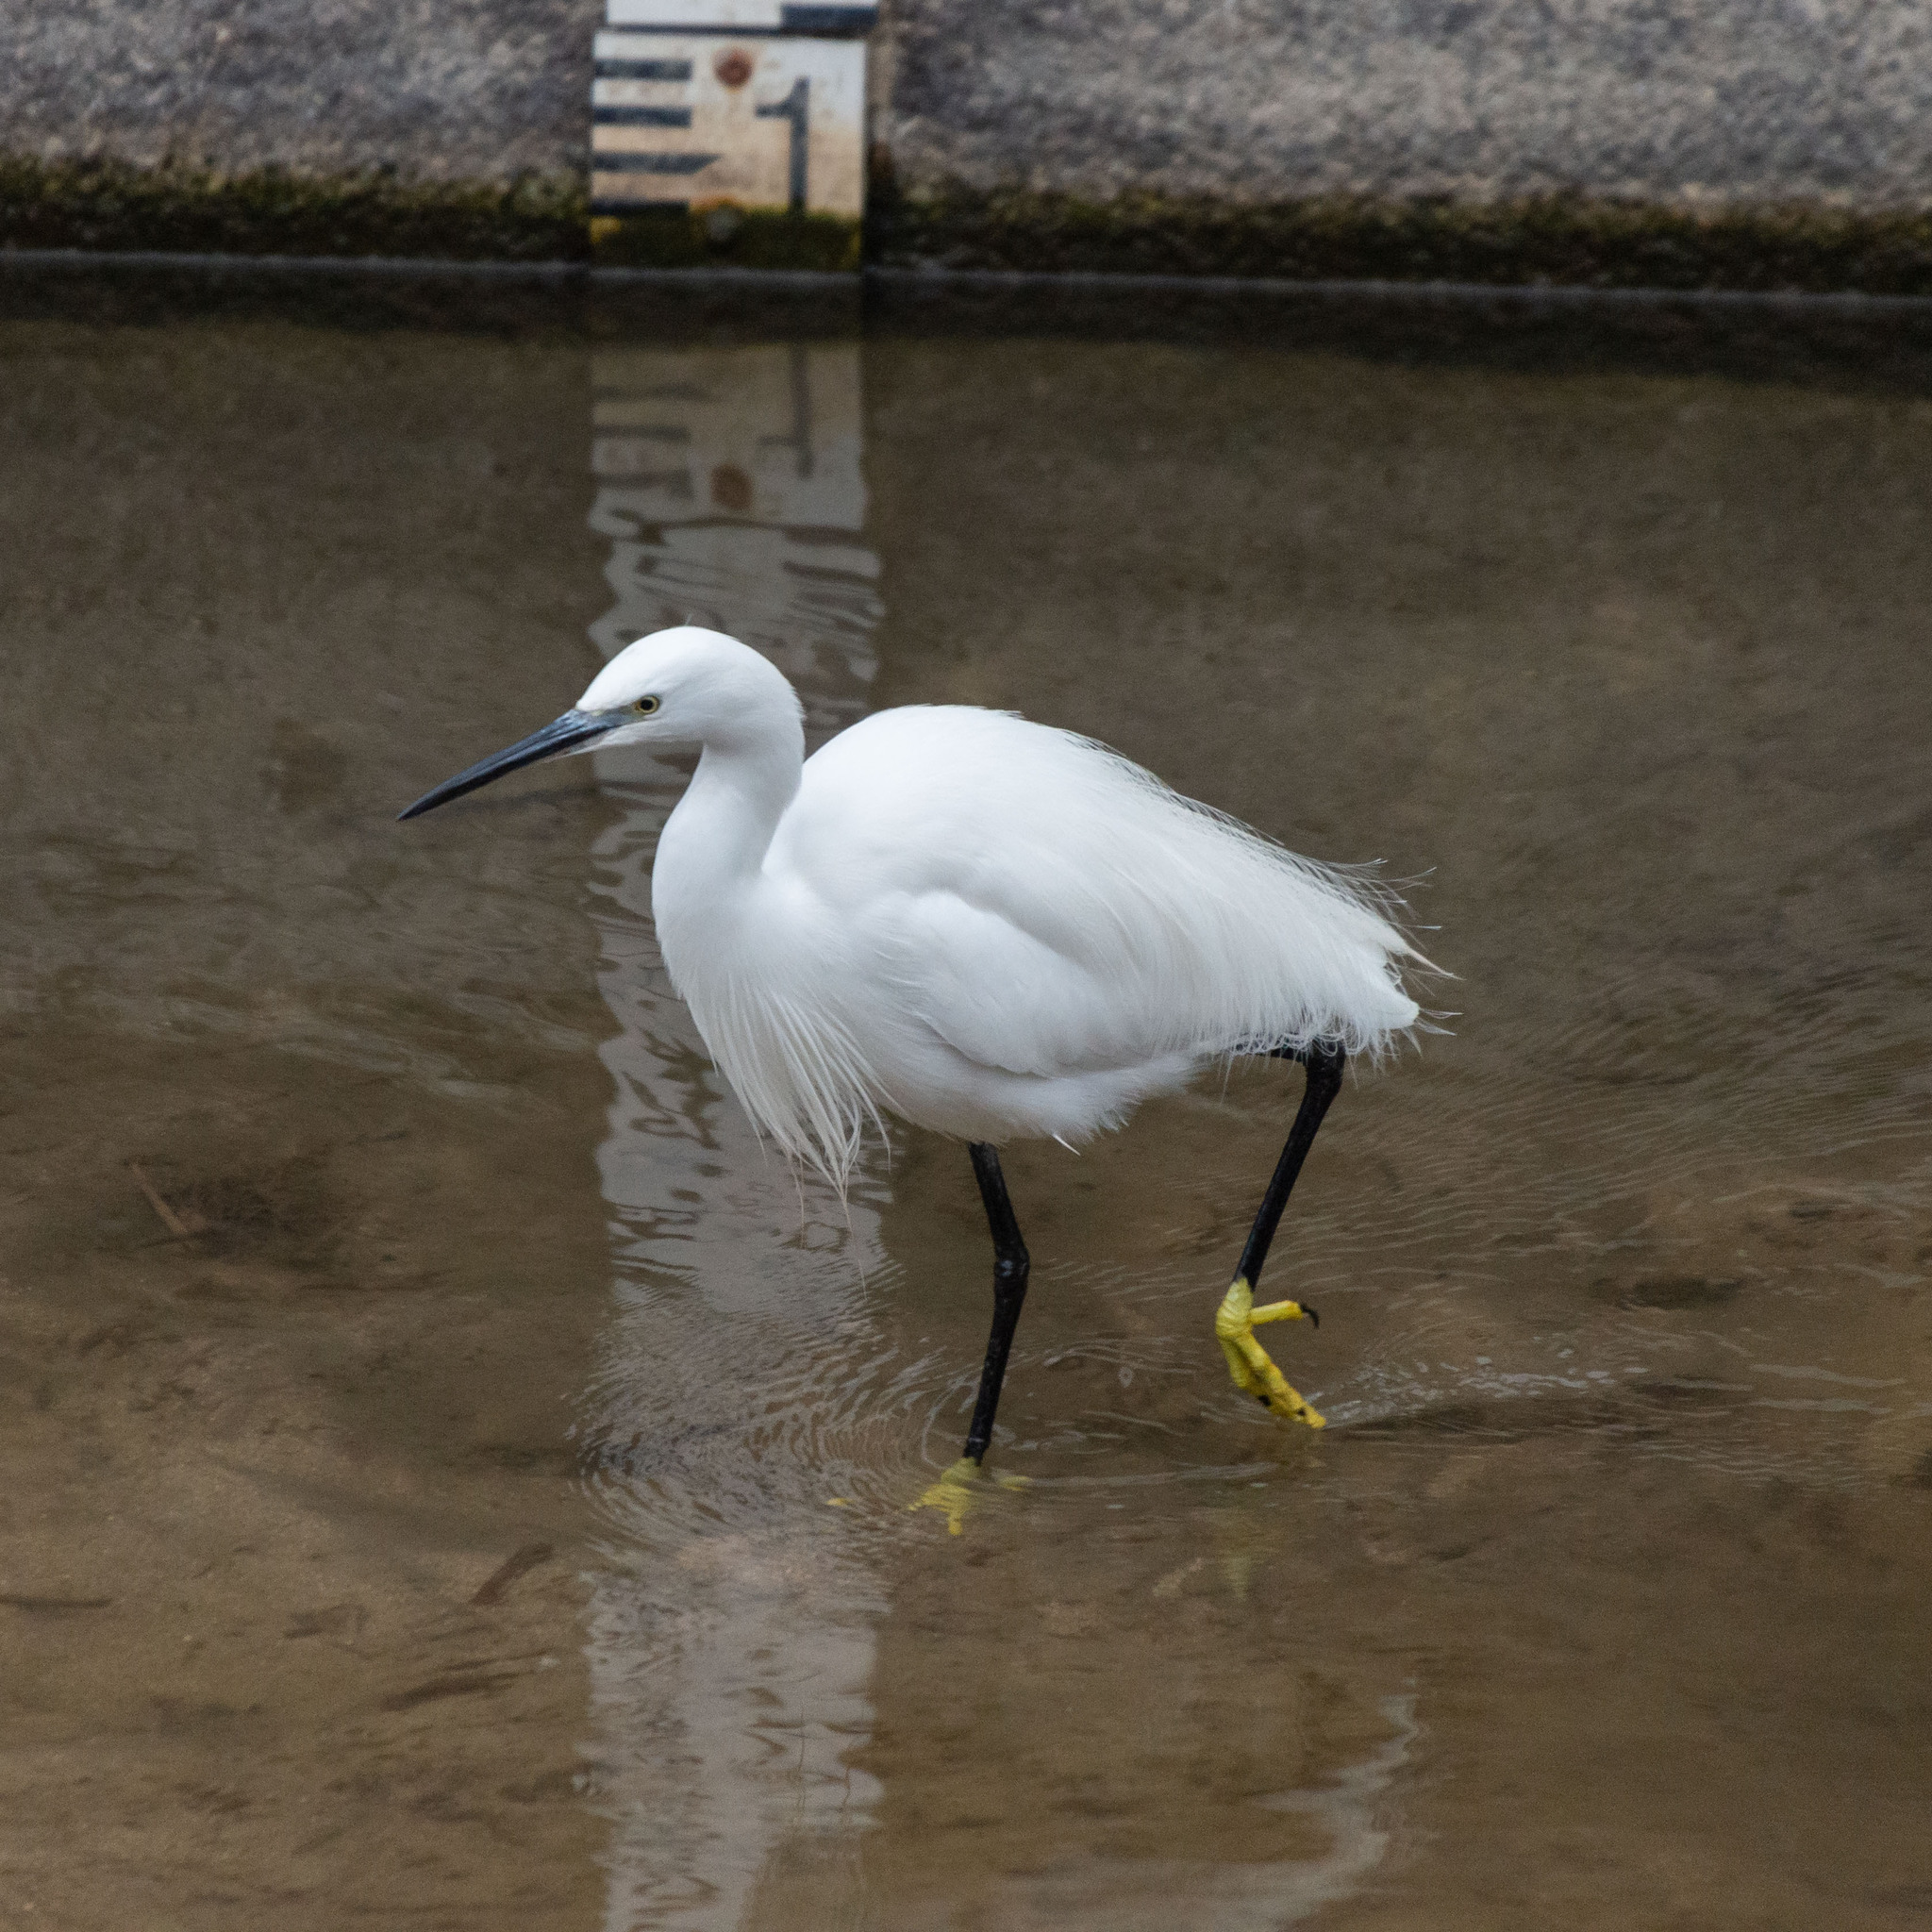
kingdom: Animalia
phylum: Chordata
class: Aves
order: Pelecaniformes
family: Ardeidae
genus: Egretta
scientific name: Egretta garzetta
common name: Little egret
